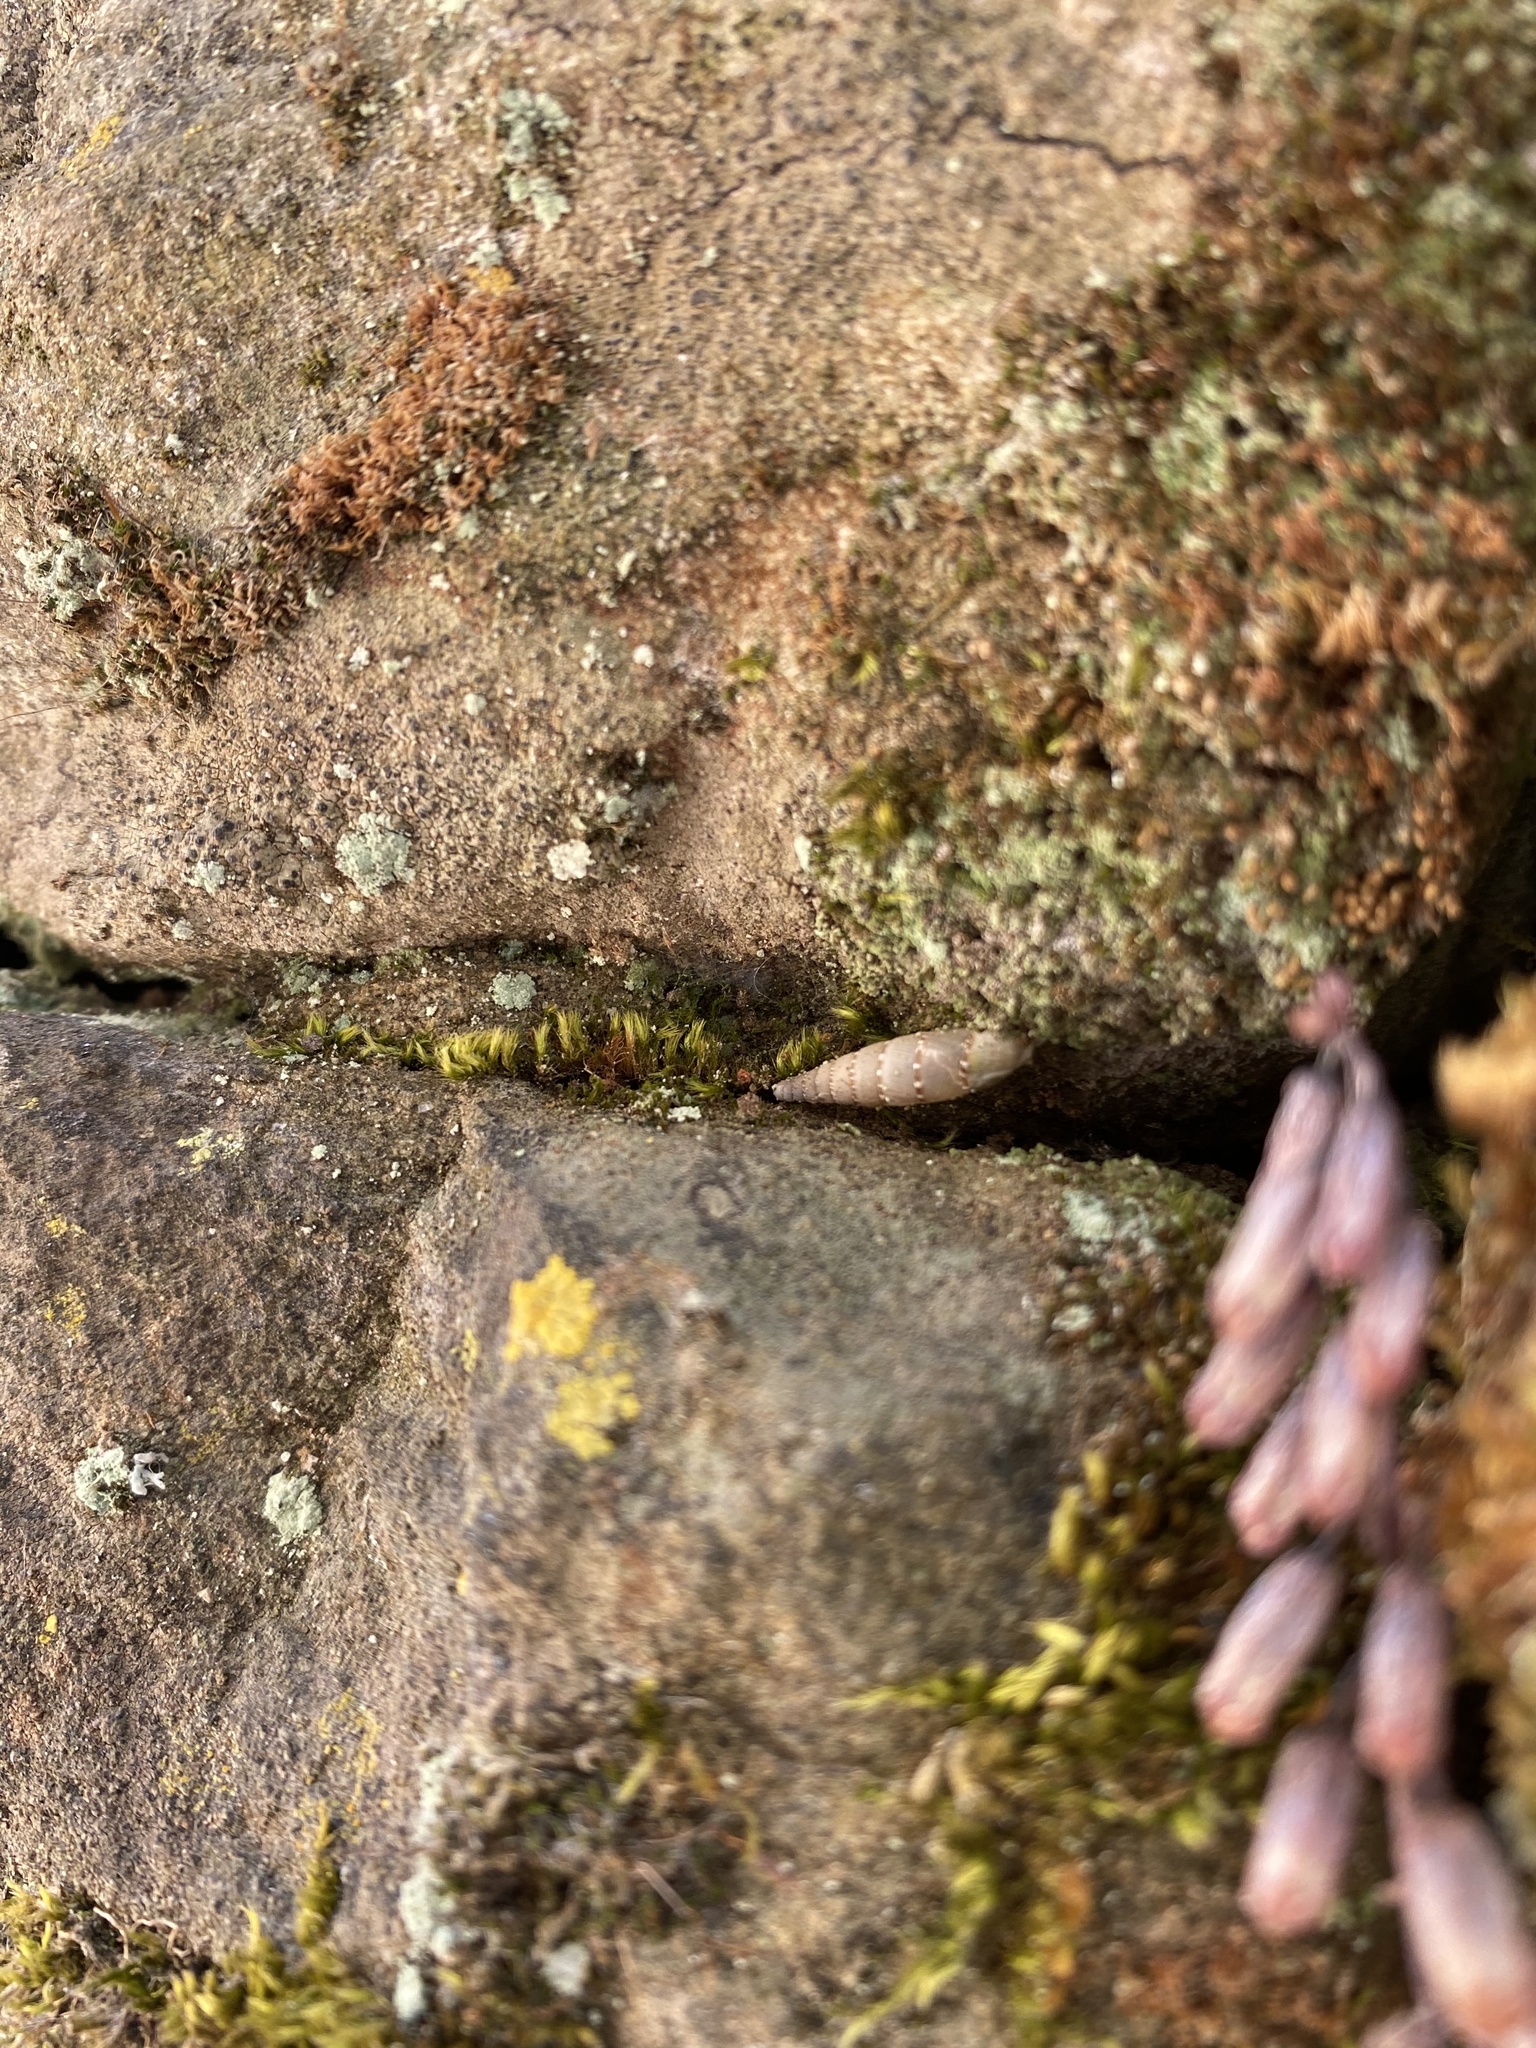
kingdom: Animalia
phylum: Mollusca
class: Gastropoda
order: Stylommatophora
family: Clausiliidae
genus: Papillifera
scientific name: Papillifera papillaris
